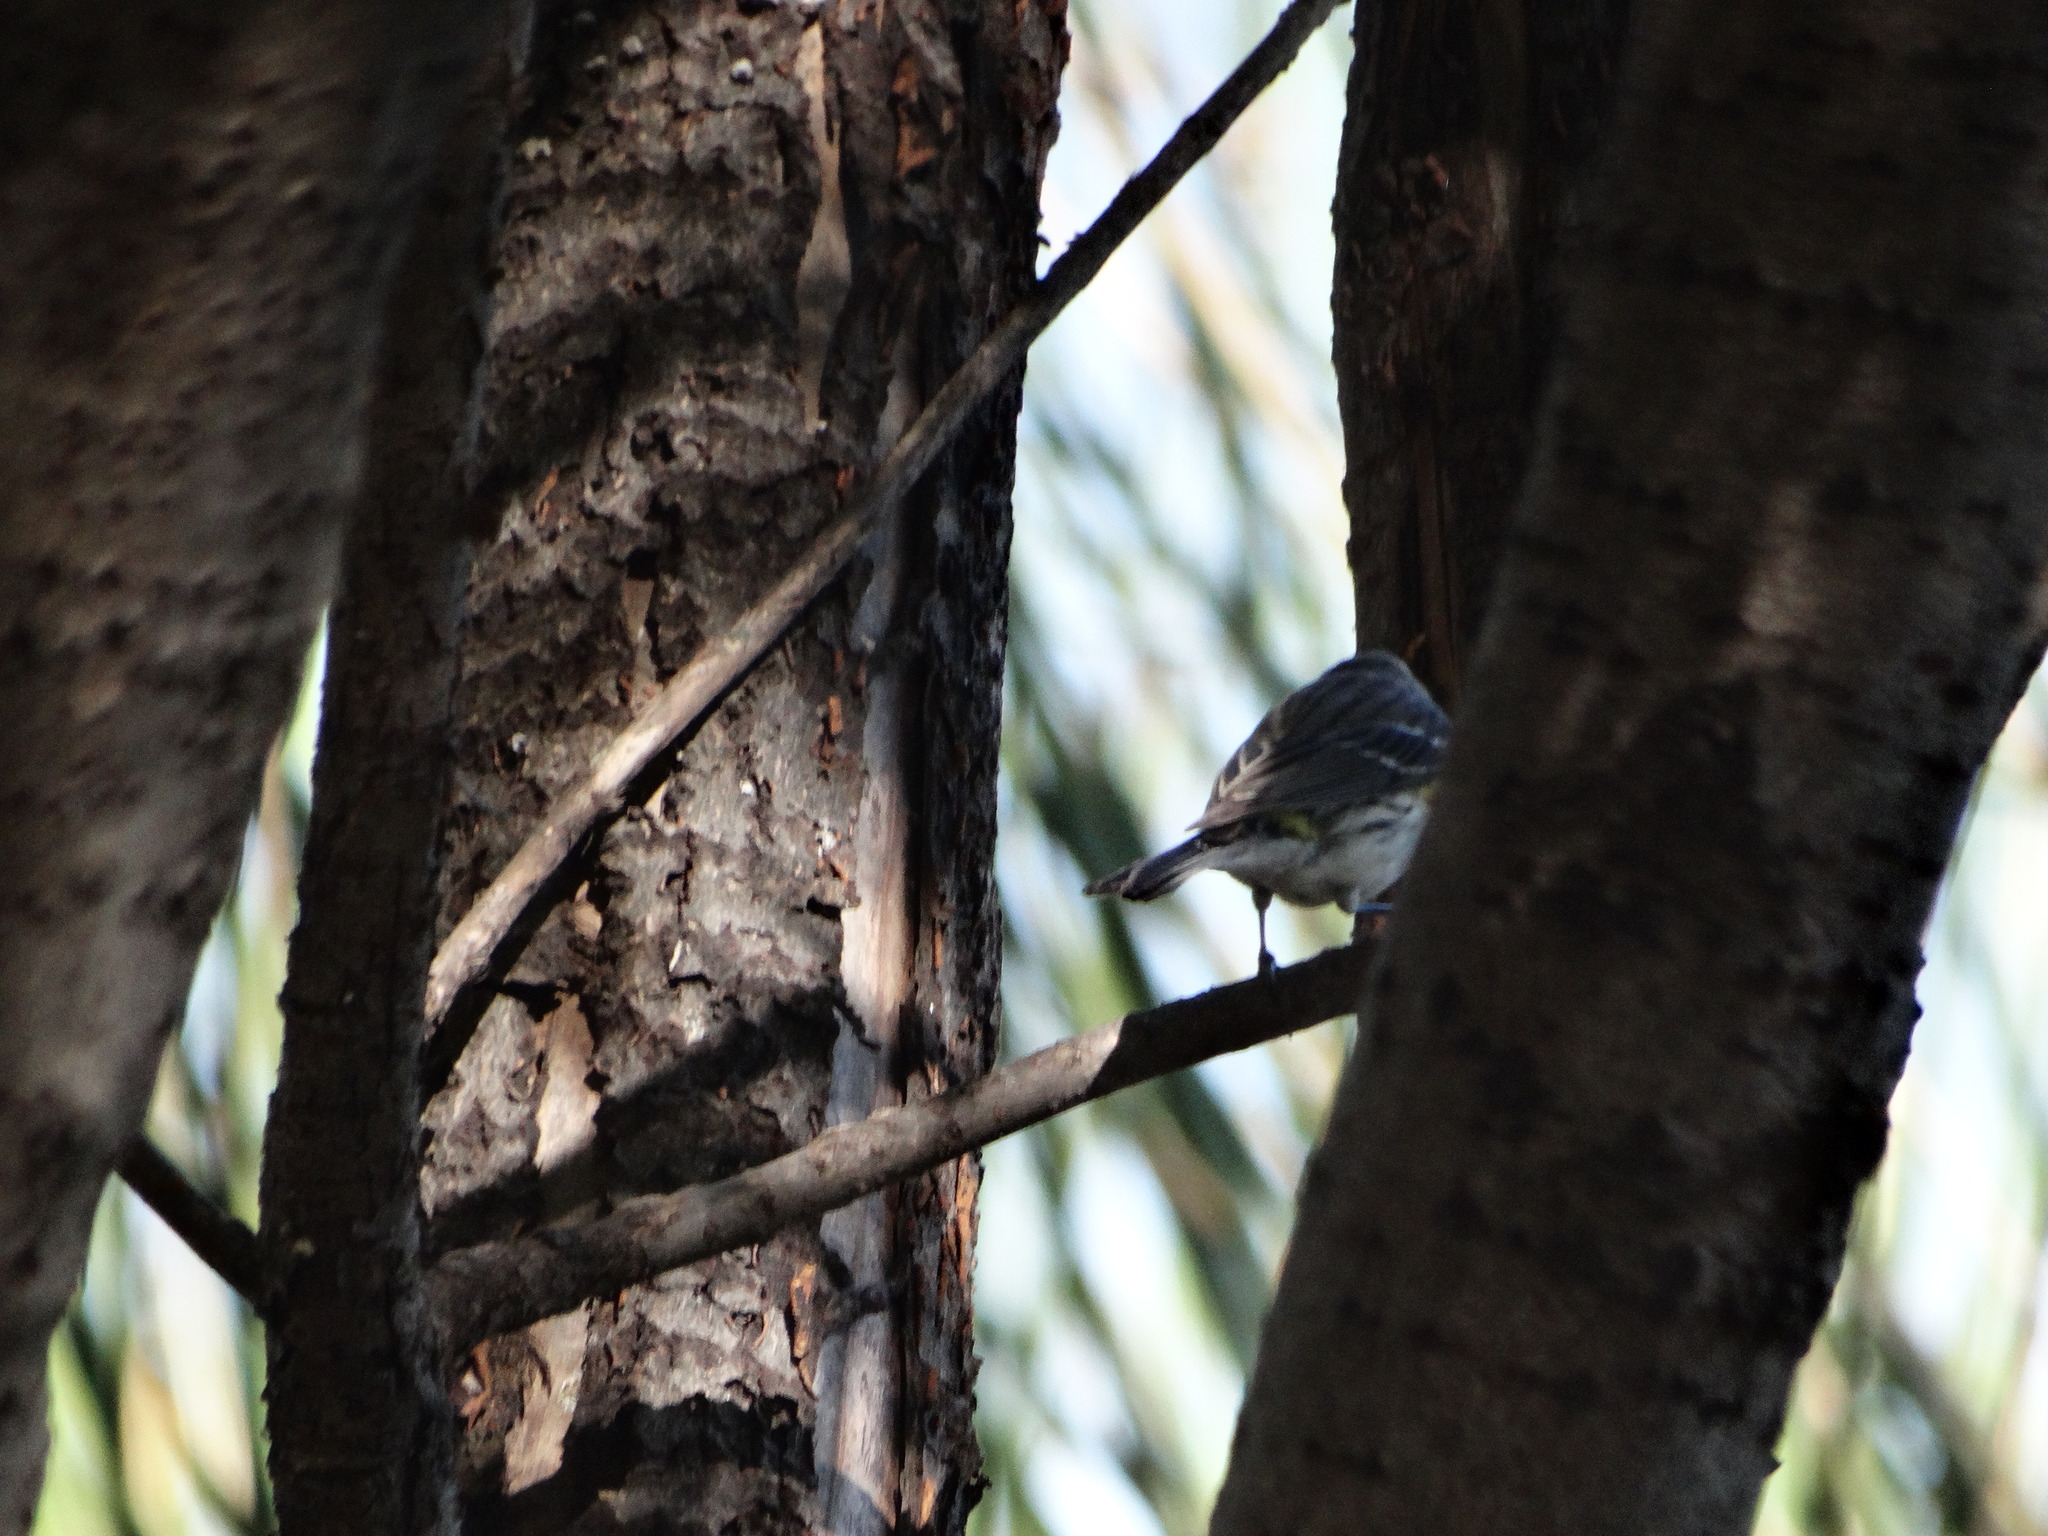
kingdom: Animalia
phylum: Chordata
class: Aves
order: Passeriformes
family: Parulidae
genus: Setophaga
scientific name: Setophaga coronata
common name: Myrtle warbler
